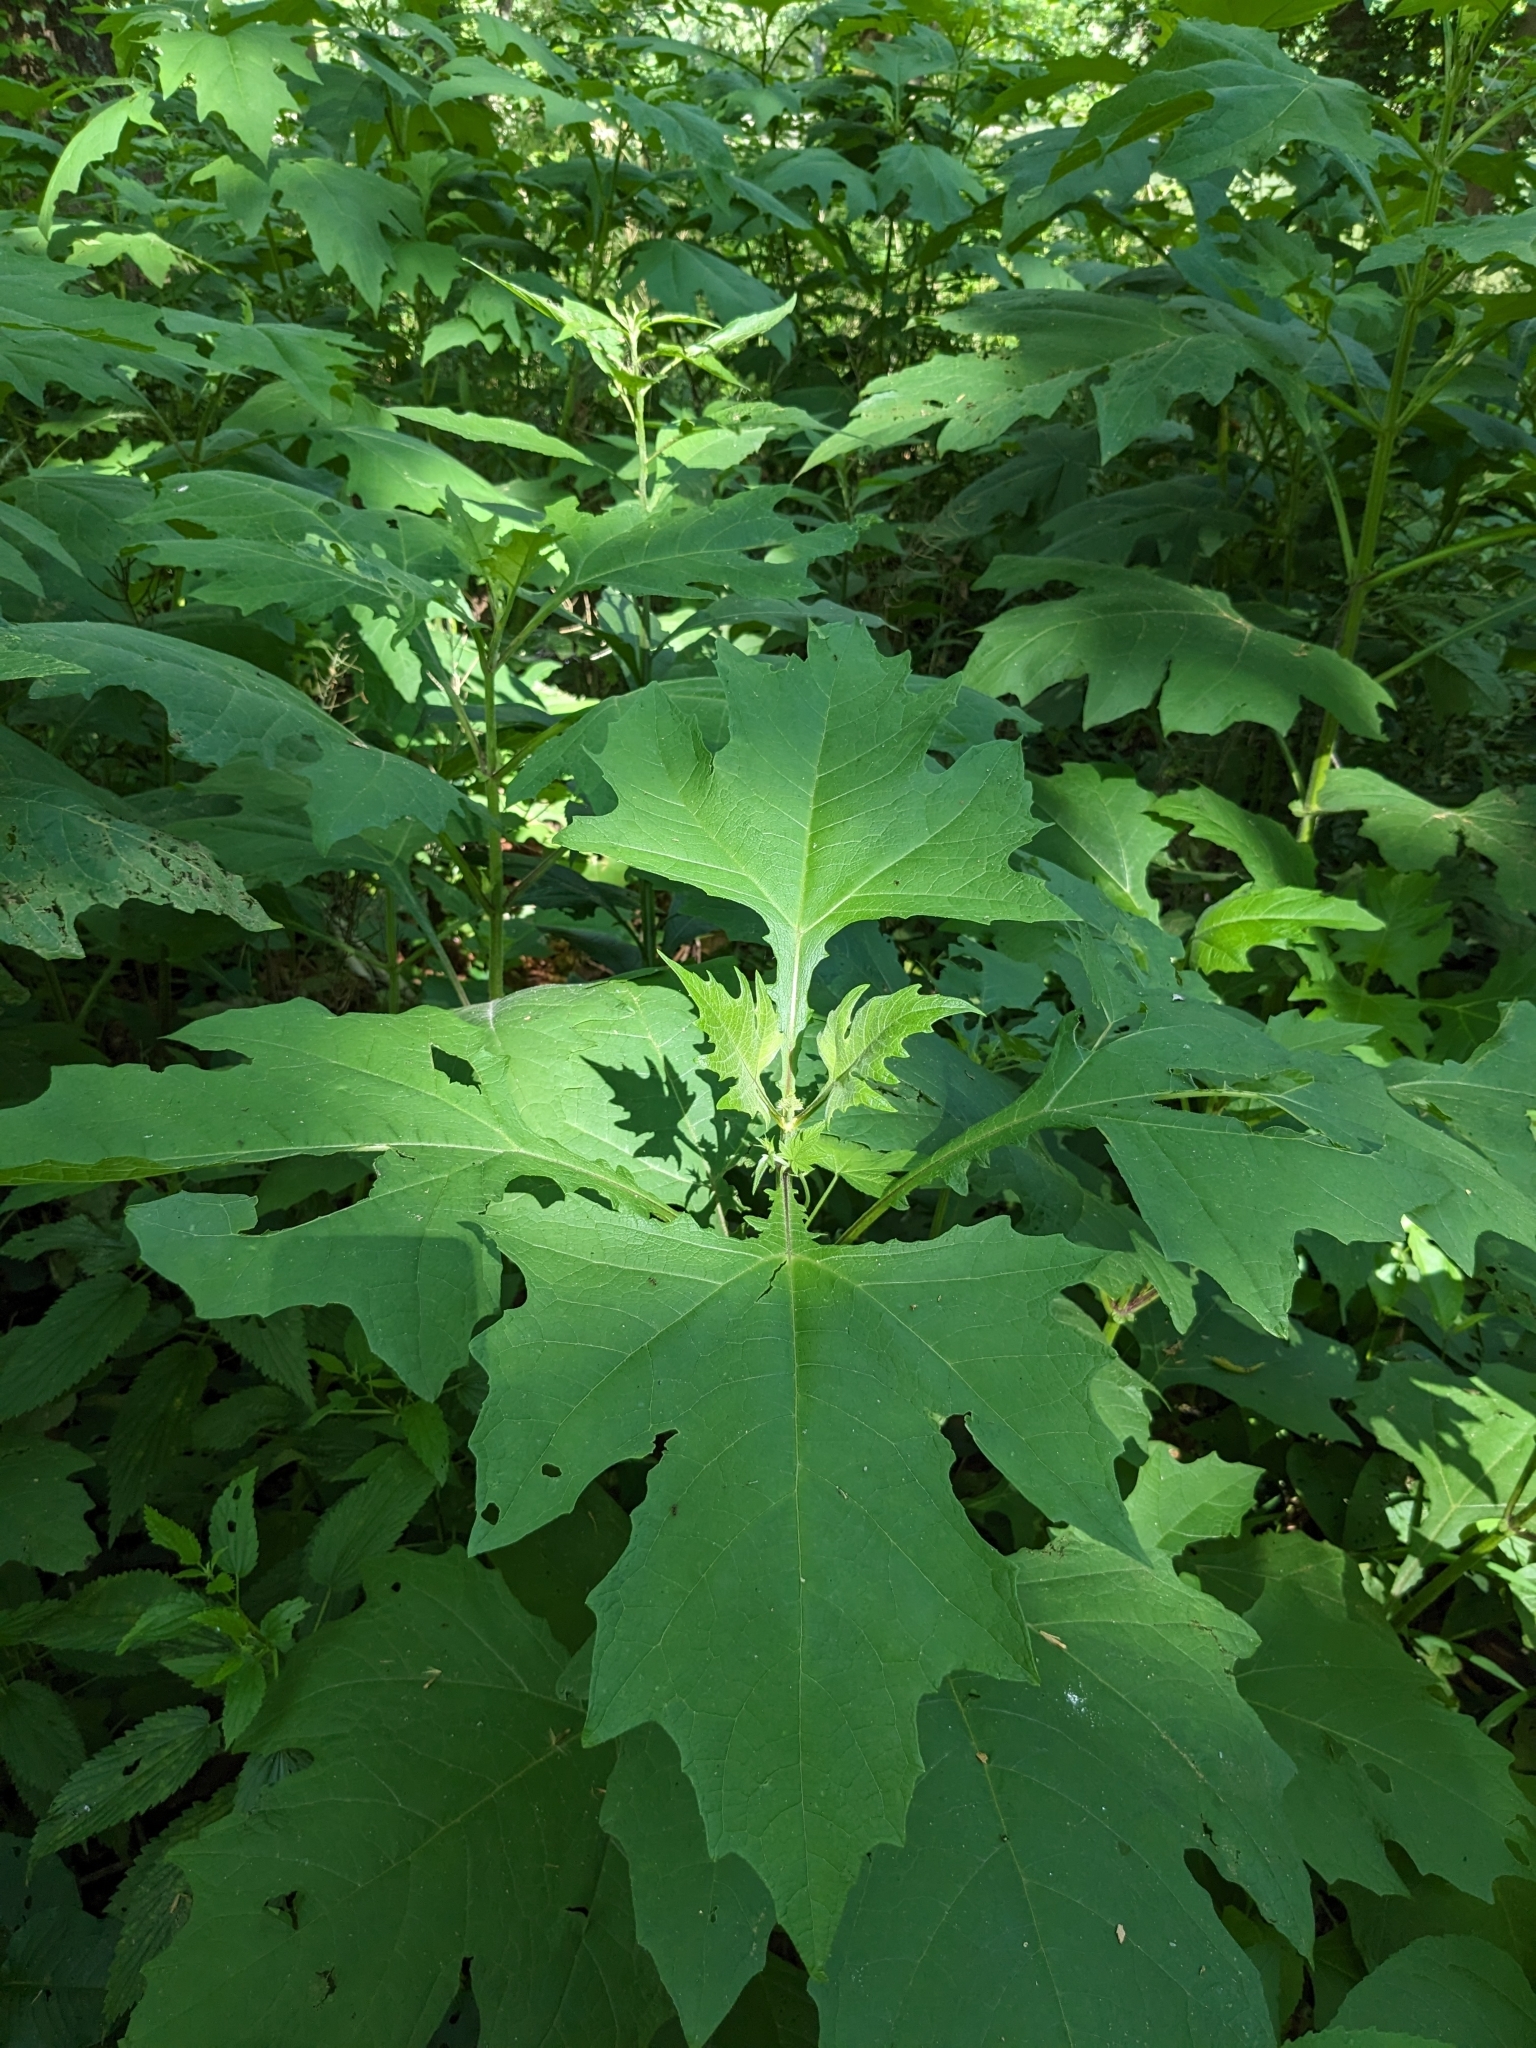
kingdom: Plantae
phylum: Tracheophyta
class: Magnoliopsida
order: Asterales
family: Asteraceae
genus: Smallanthus
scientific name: Smallanthus uvedalia
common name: Bear's-foot
